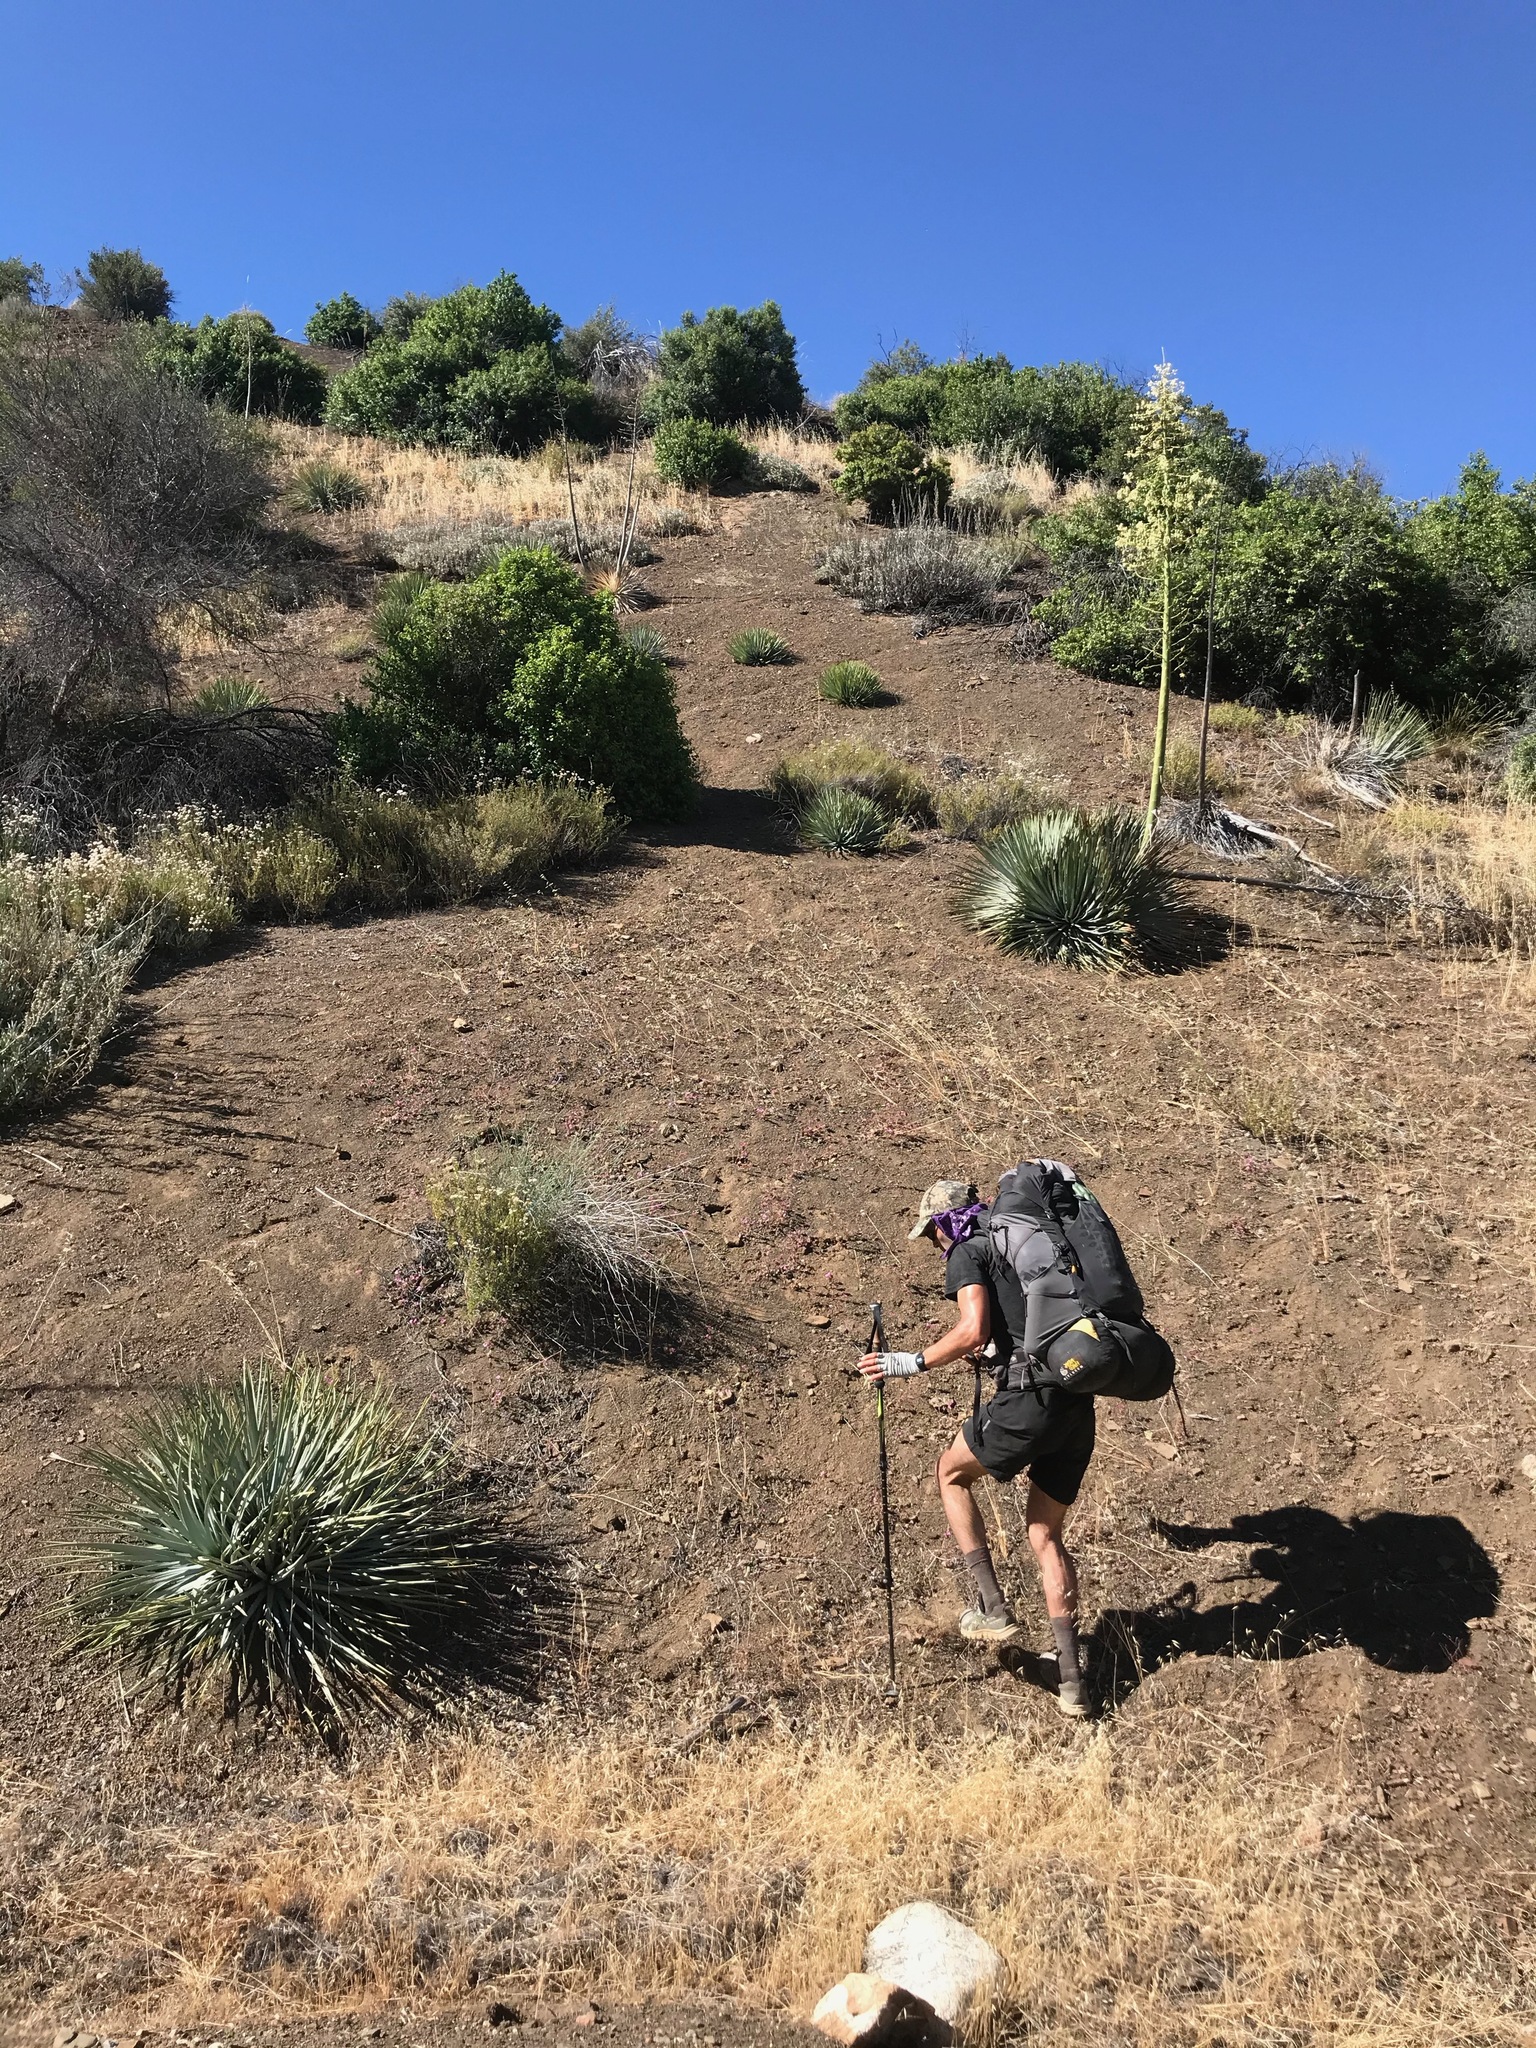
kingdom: Plantae
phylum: Tracheophyta
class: Liliopsida
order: Asparagales
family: Asparagaceae
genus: Hesperoyucca
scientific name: Hesperoyucca whipplei
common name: Our lord's-candle
